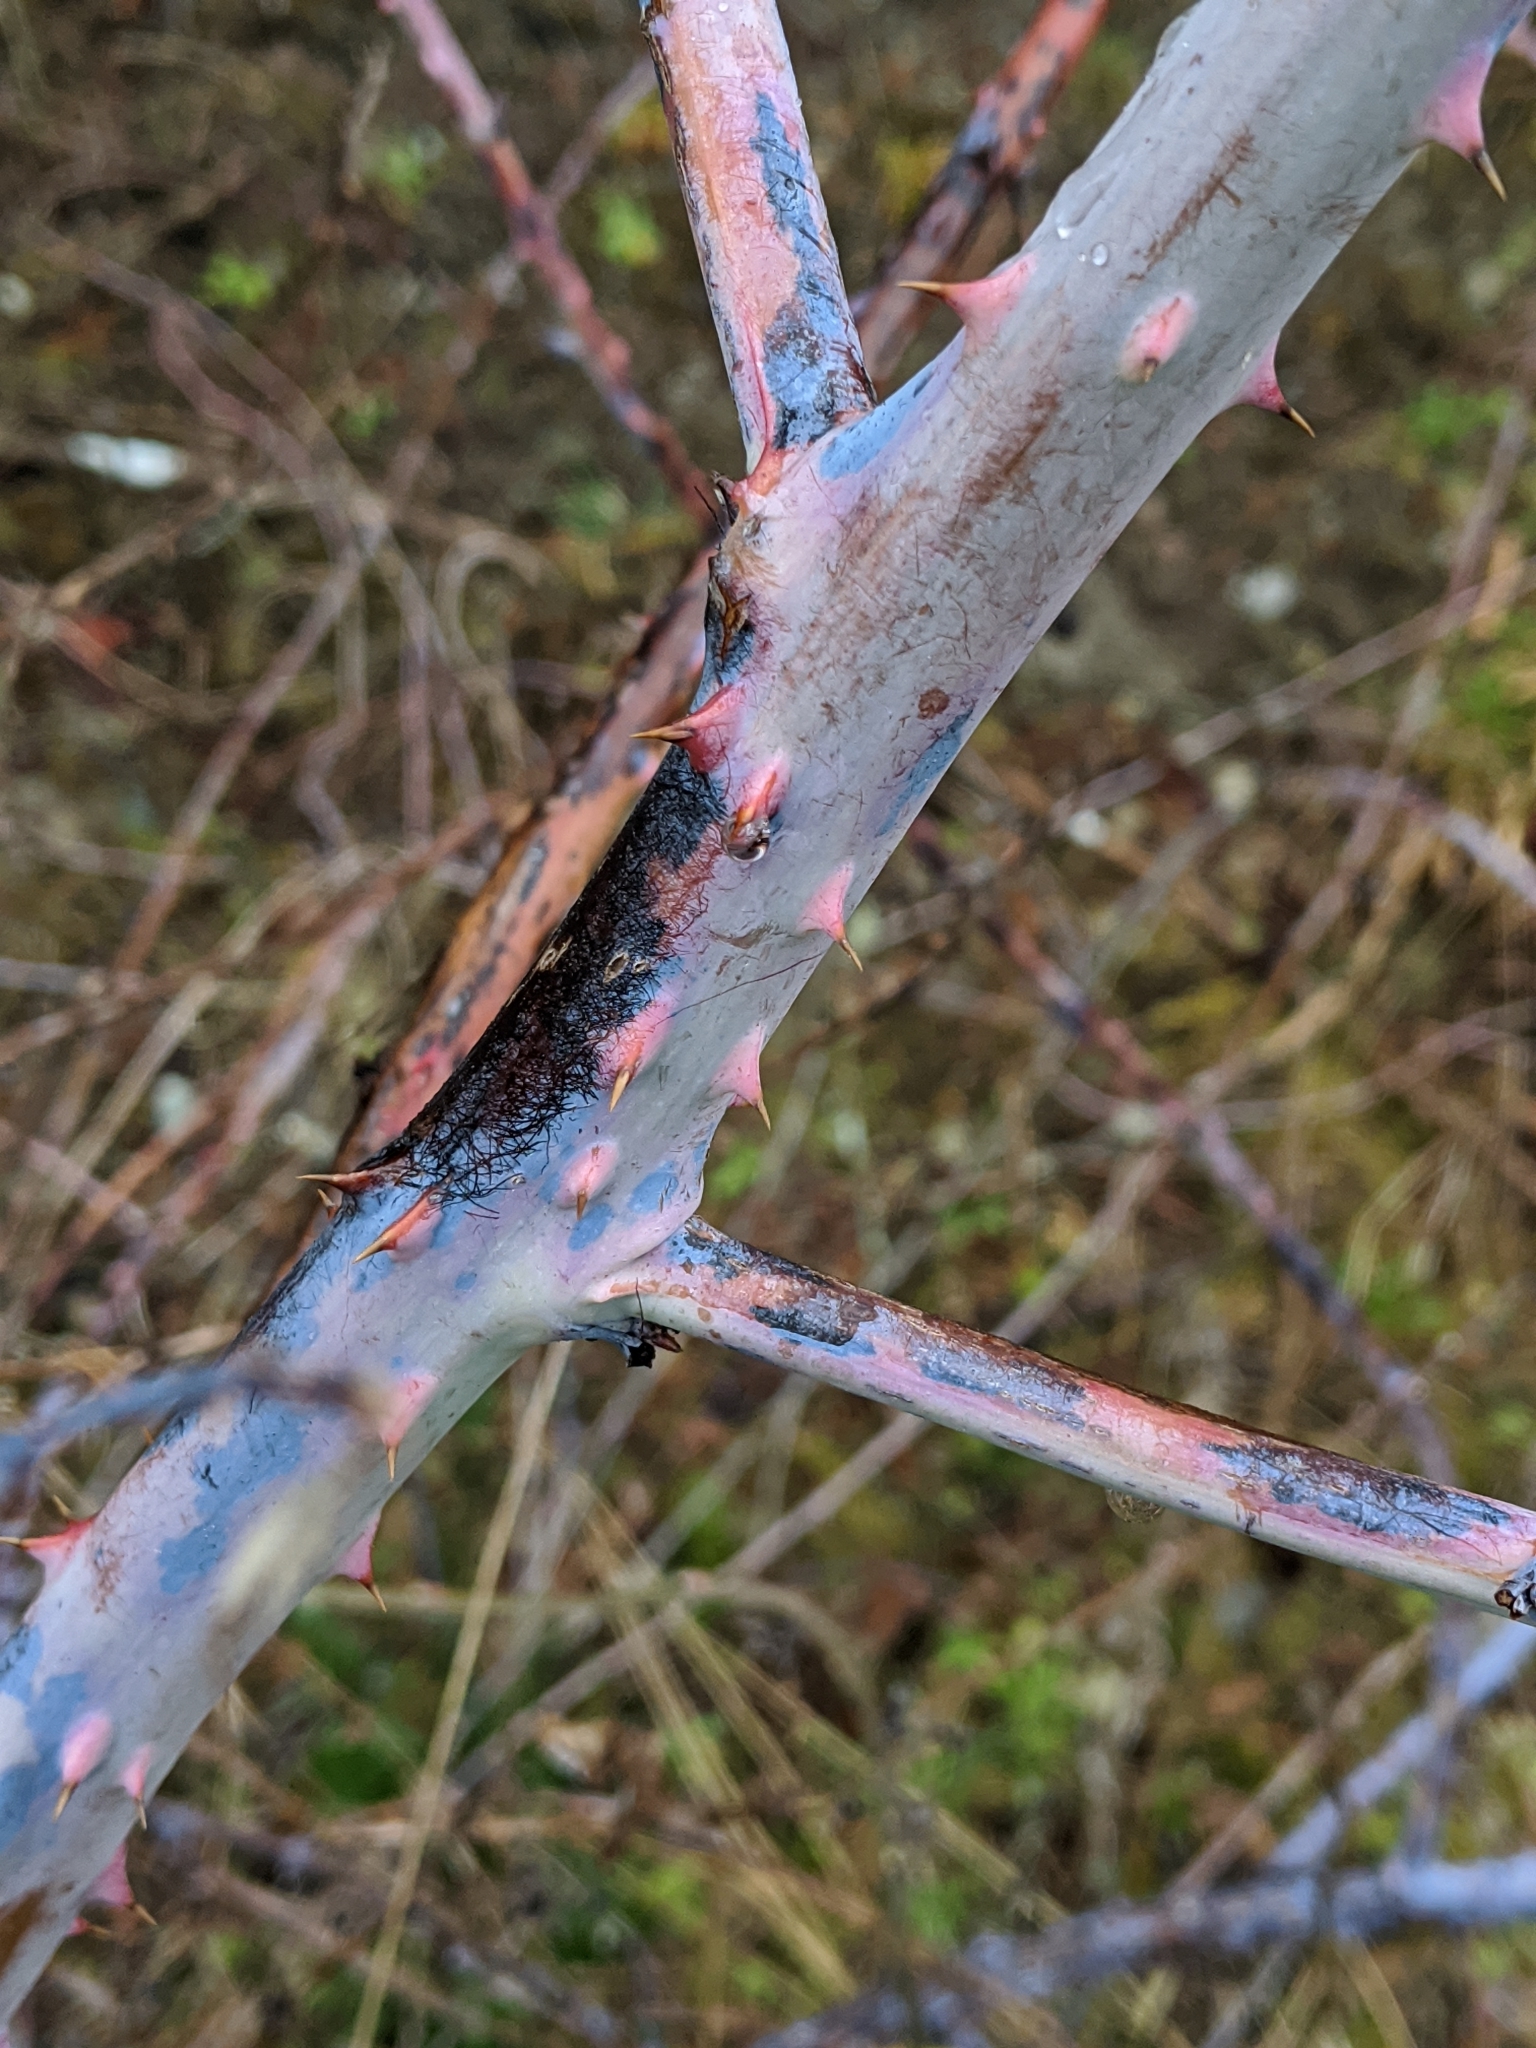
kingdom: Plantae
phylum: Tracheophyta
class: Magnoliopsida
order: Rosales
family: Rosaceae
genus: Rubus
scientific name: Rubus leucodermis
